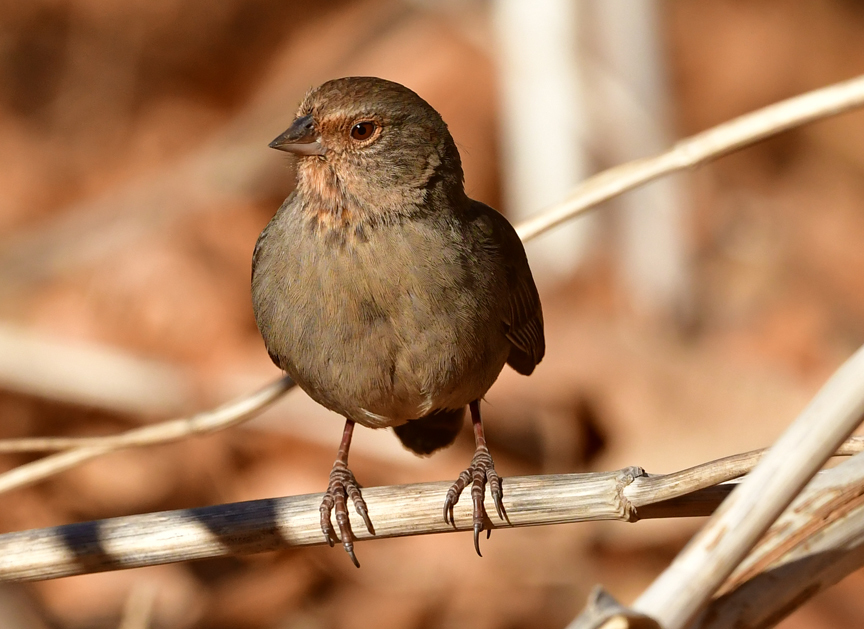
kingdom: Animalia
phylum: Chordata
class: Aves
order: Passeriformes
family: Passerellidae
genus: Melozone
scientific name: Melozone crissalis
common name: California towhee
